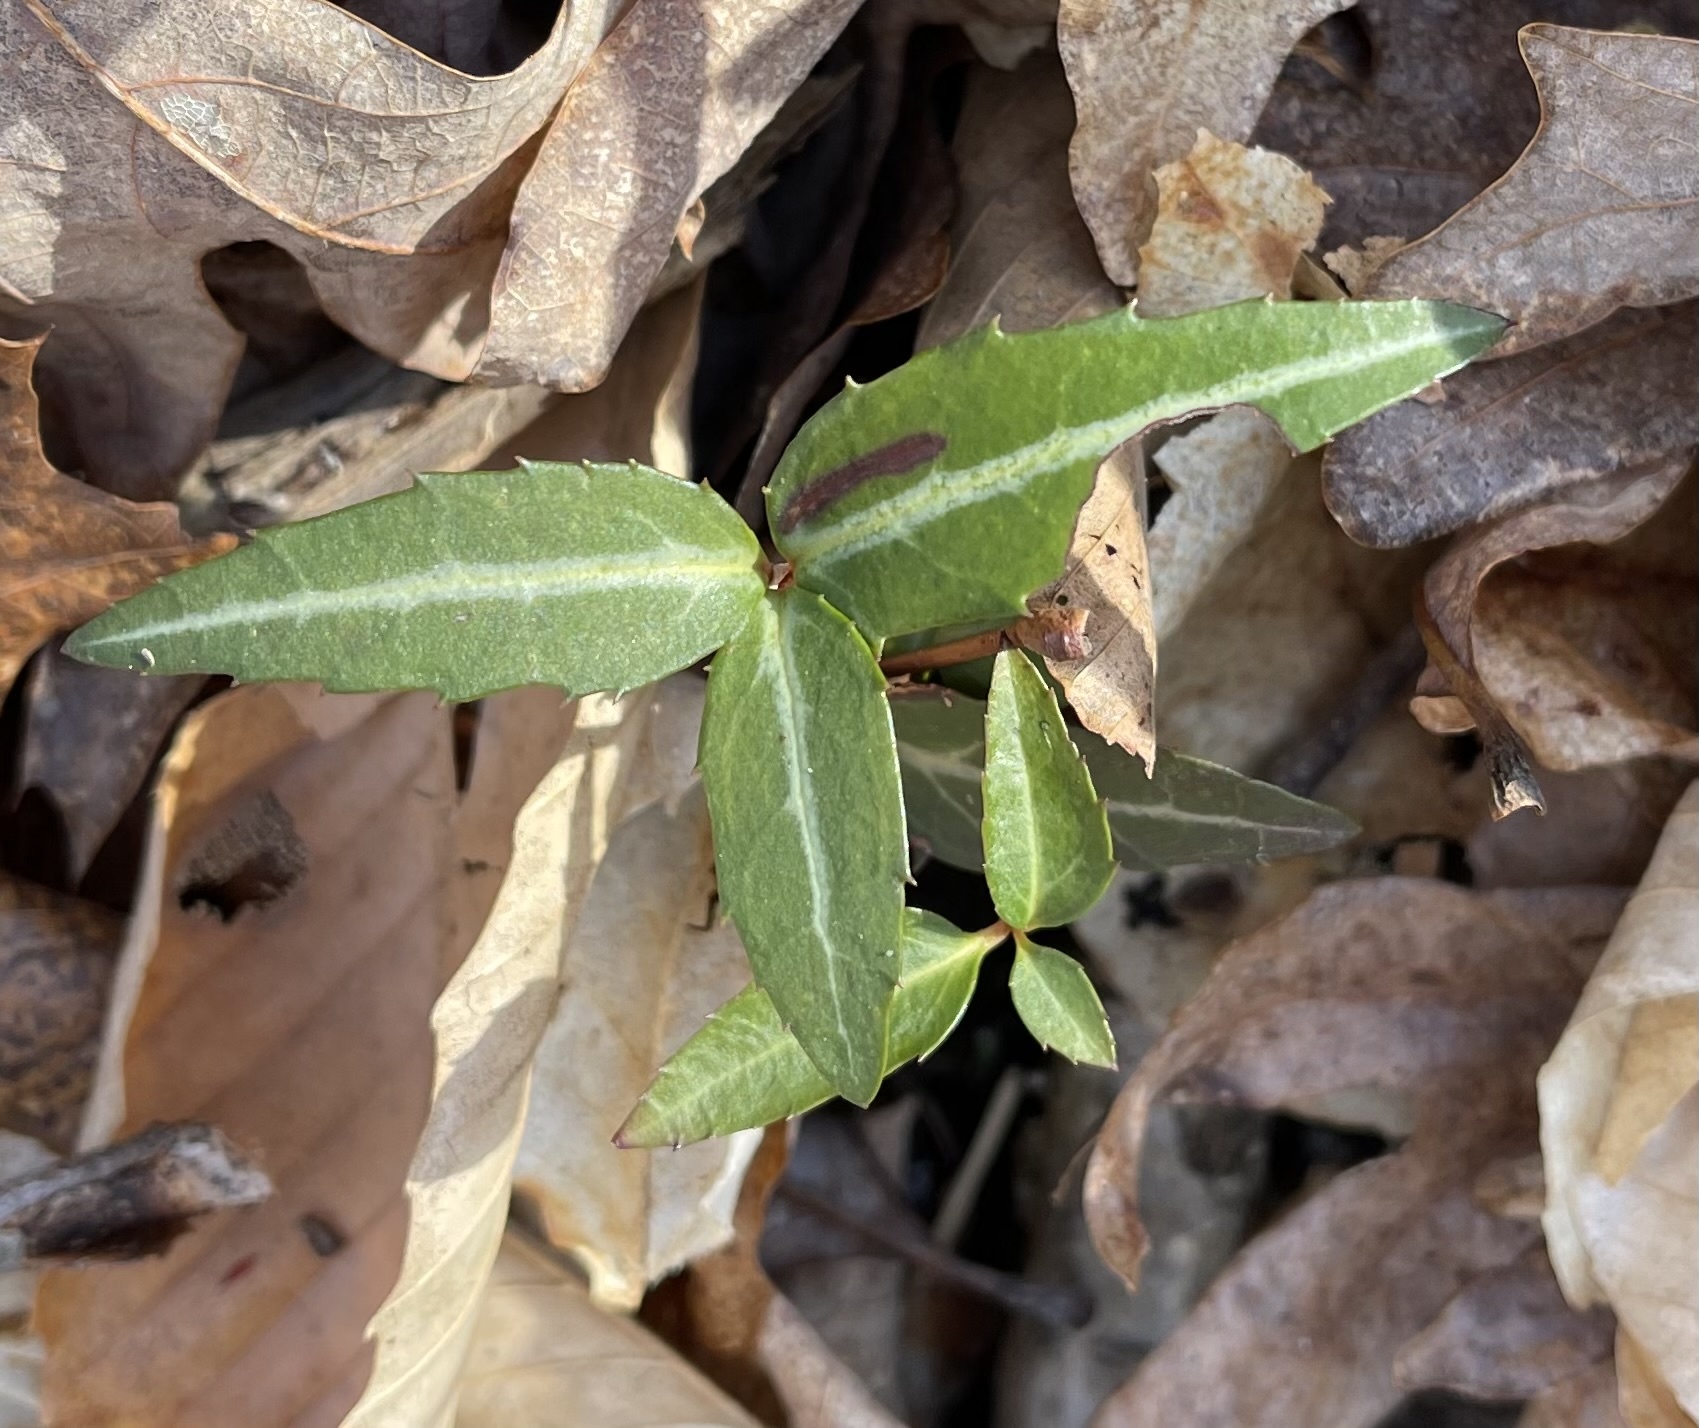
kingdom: Plantae
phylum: Tracheophyta
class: Magnoliopsida
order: Ericales
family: Ericaceae
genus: Chimaphila
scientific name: Chimaphila maculata
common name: Spotted pipsissewa
